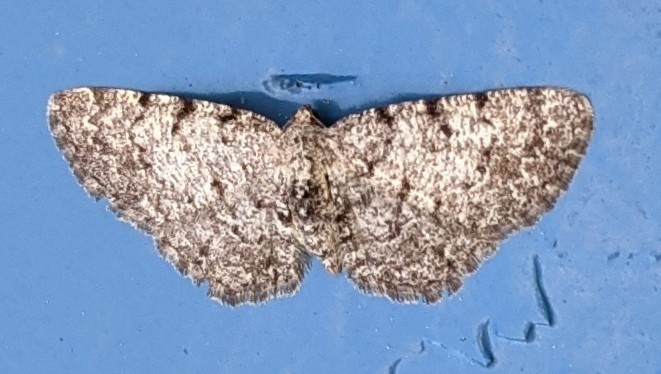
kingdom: Animalia
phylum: Arthropoda
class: Insecta
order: Lepidoptera
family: Geometridae
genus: Aethalura
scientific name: Aethalura intertexta
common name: Four-barred gray
